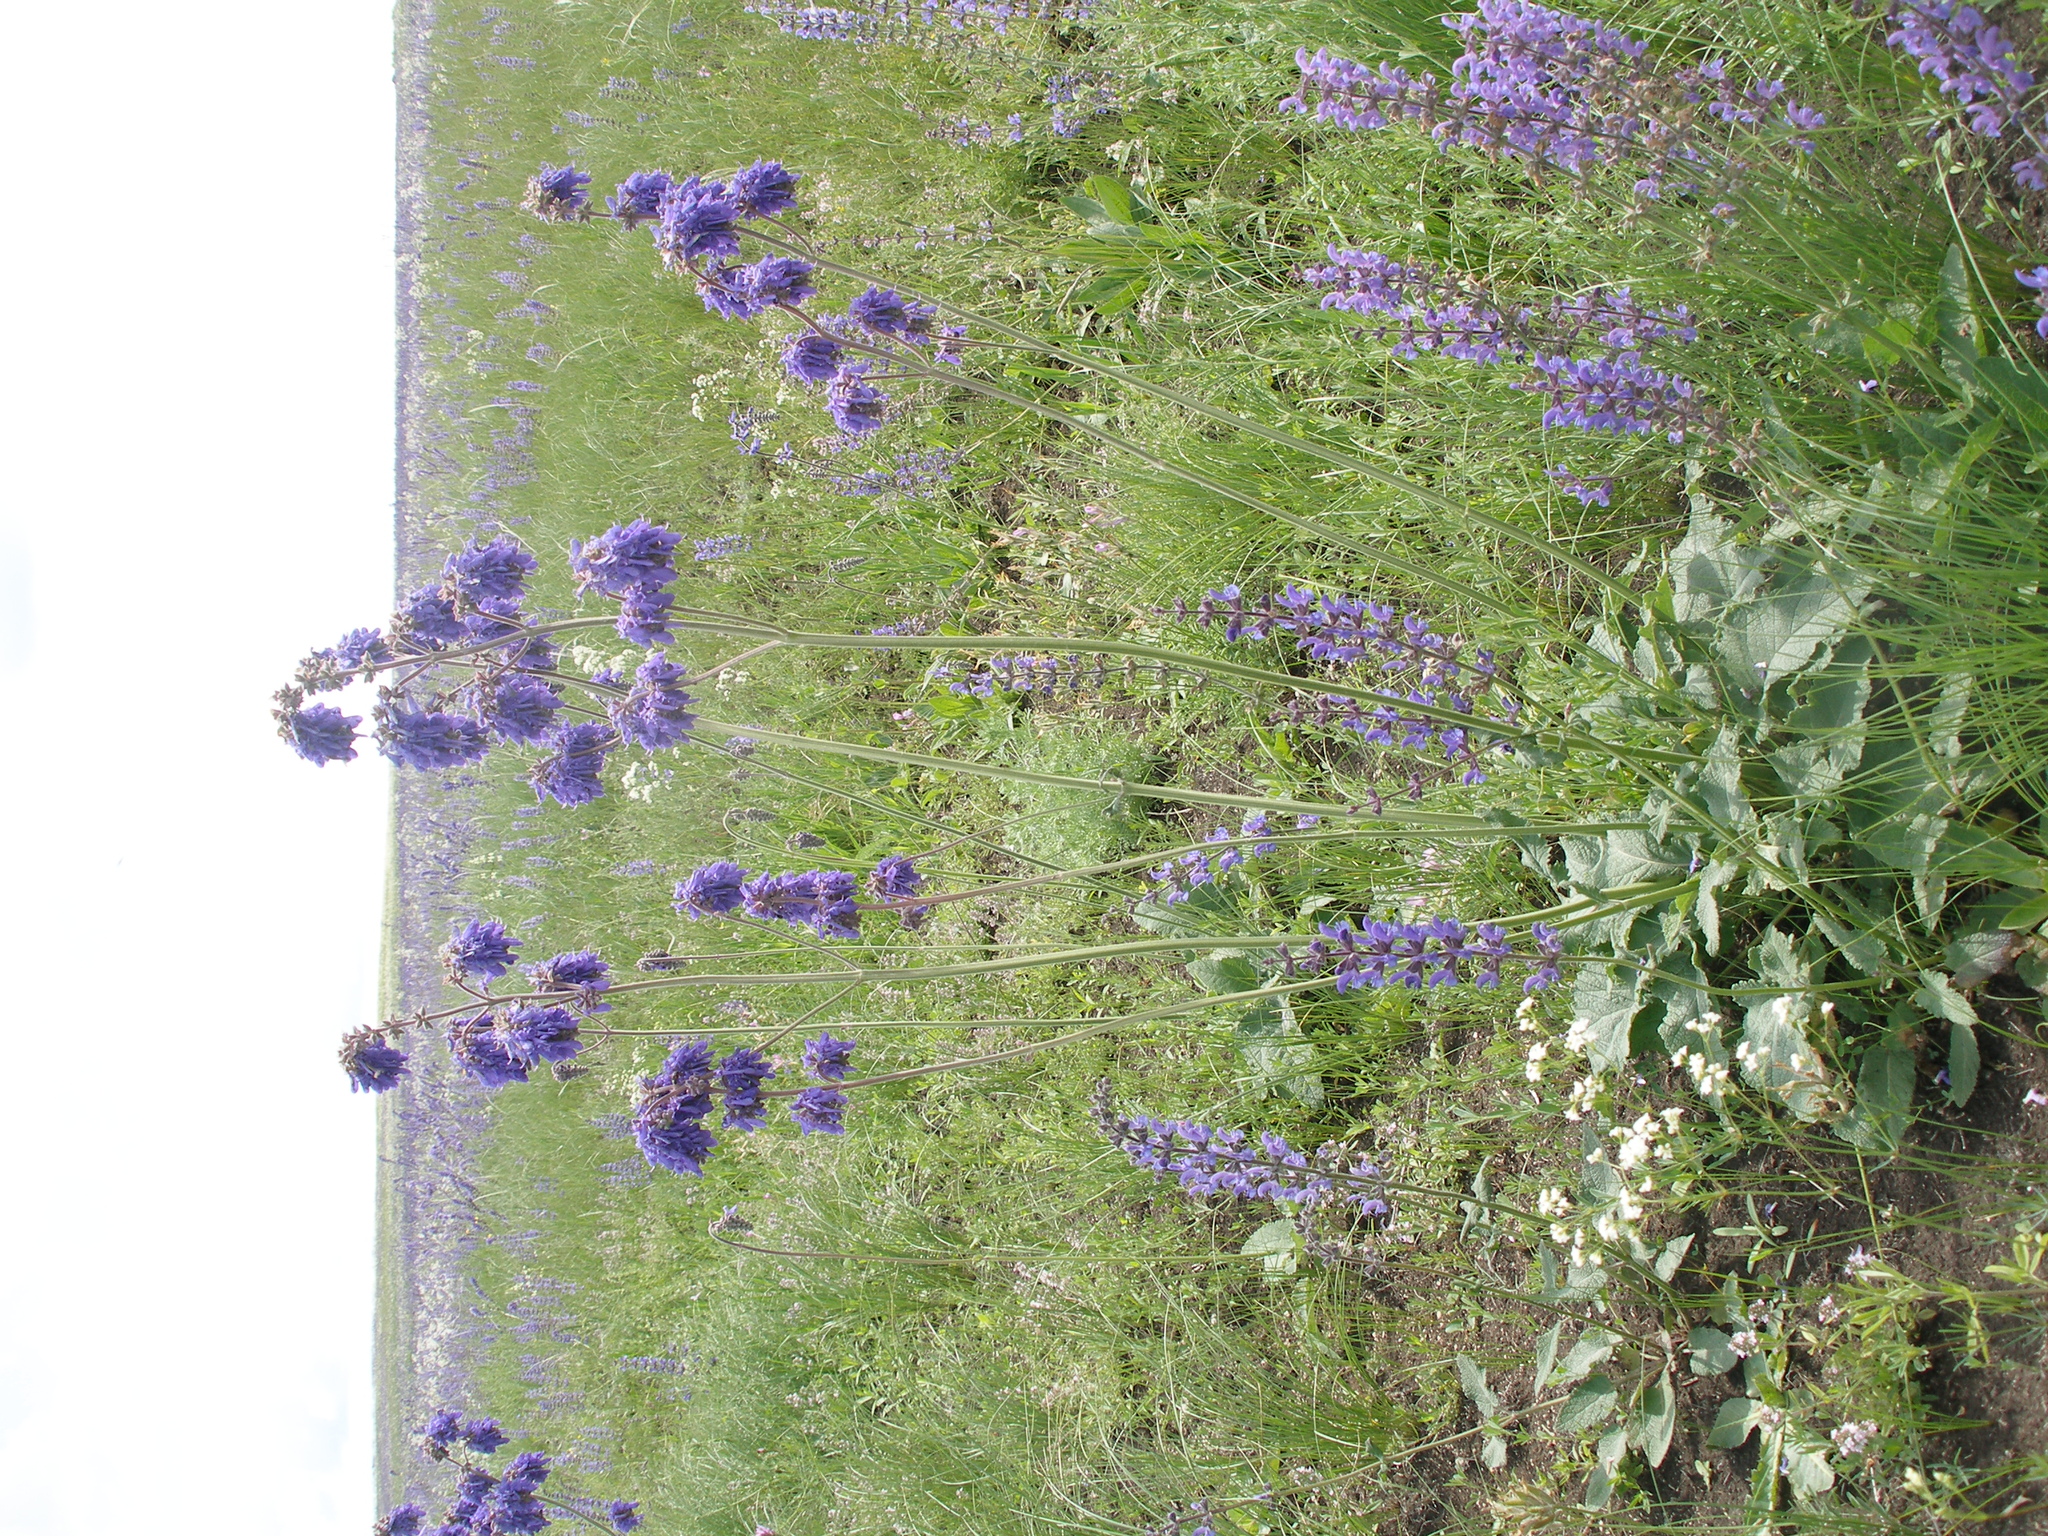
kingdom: Plantae
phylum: Tracheophyta
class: Magnoliopsida
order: Lamiales
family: Lamiaceae
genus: Salvia
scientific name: Salvia nutans
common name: Nodding sage
